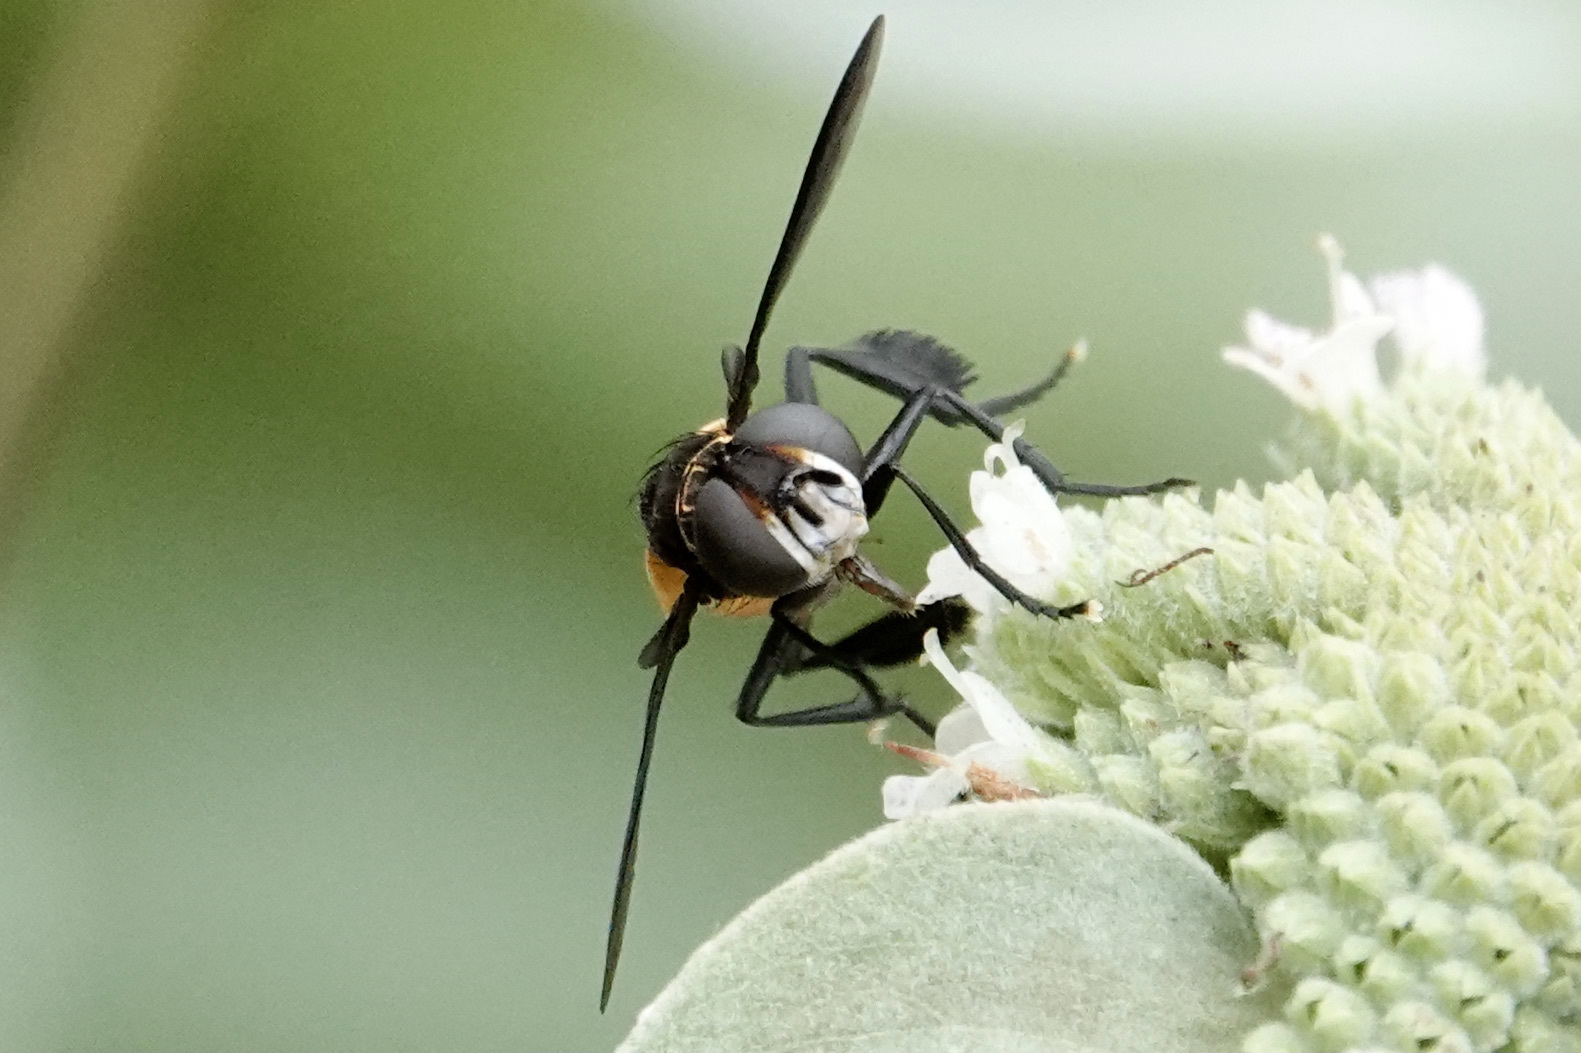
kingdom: Animalia
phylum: Arthropoda
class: Insecta
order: Diptera
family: Tachinidae
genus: Trichopoda
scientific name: Trichopoda pennipes
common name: Tachinid fly
